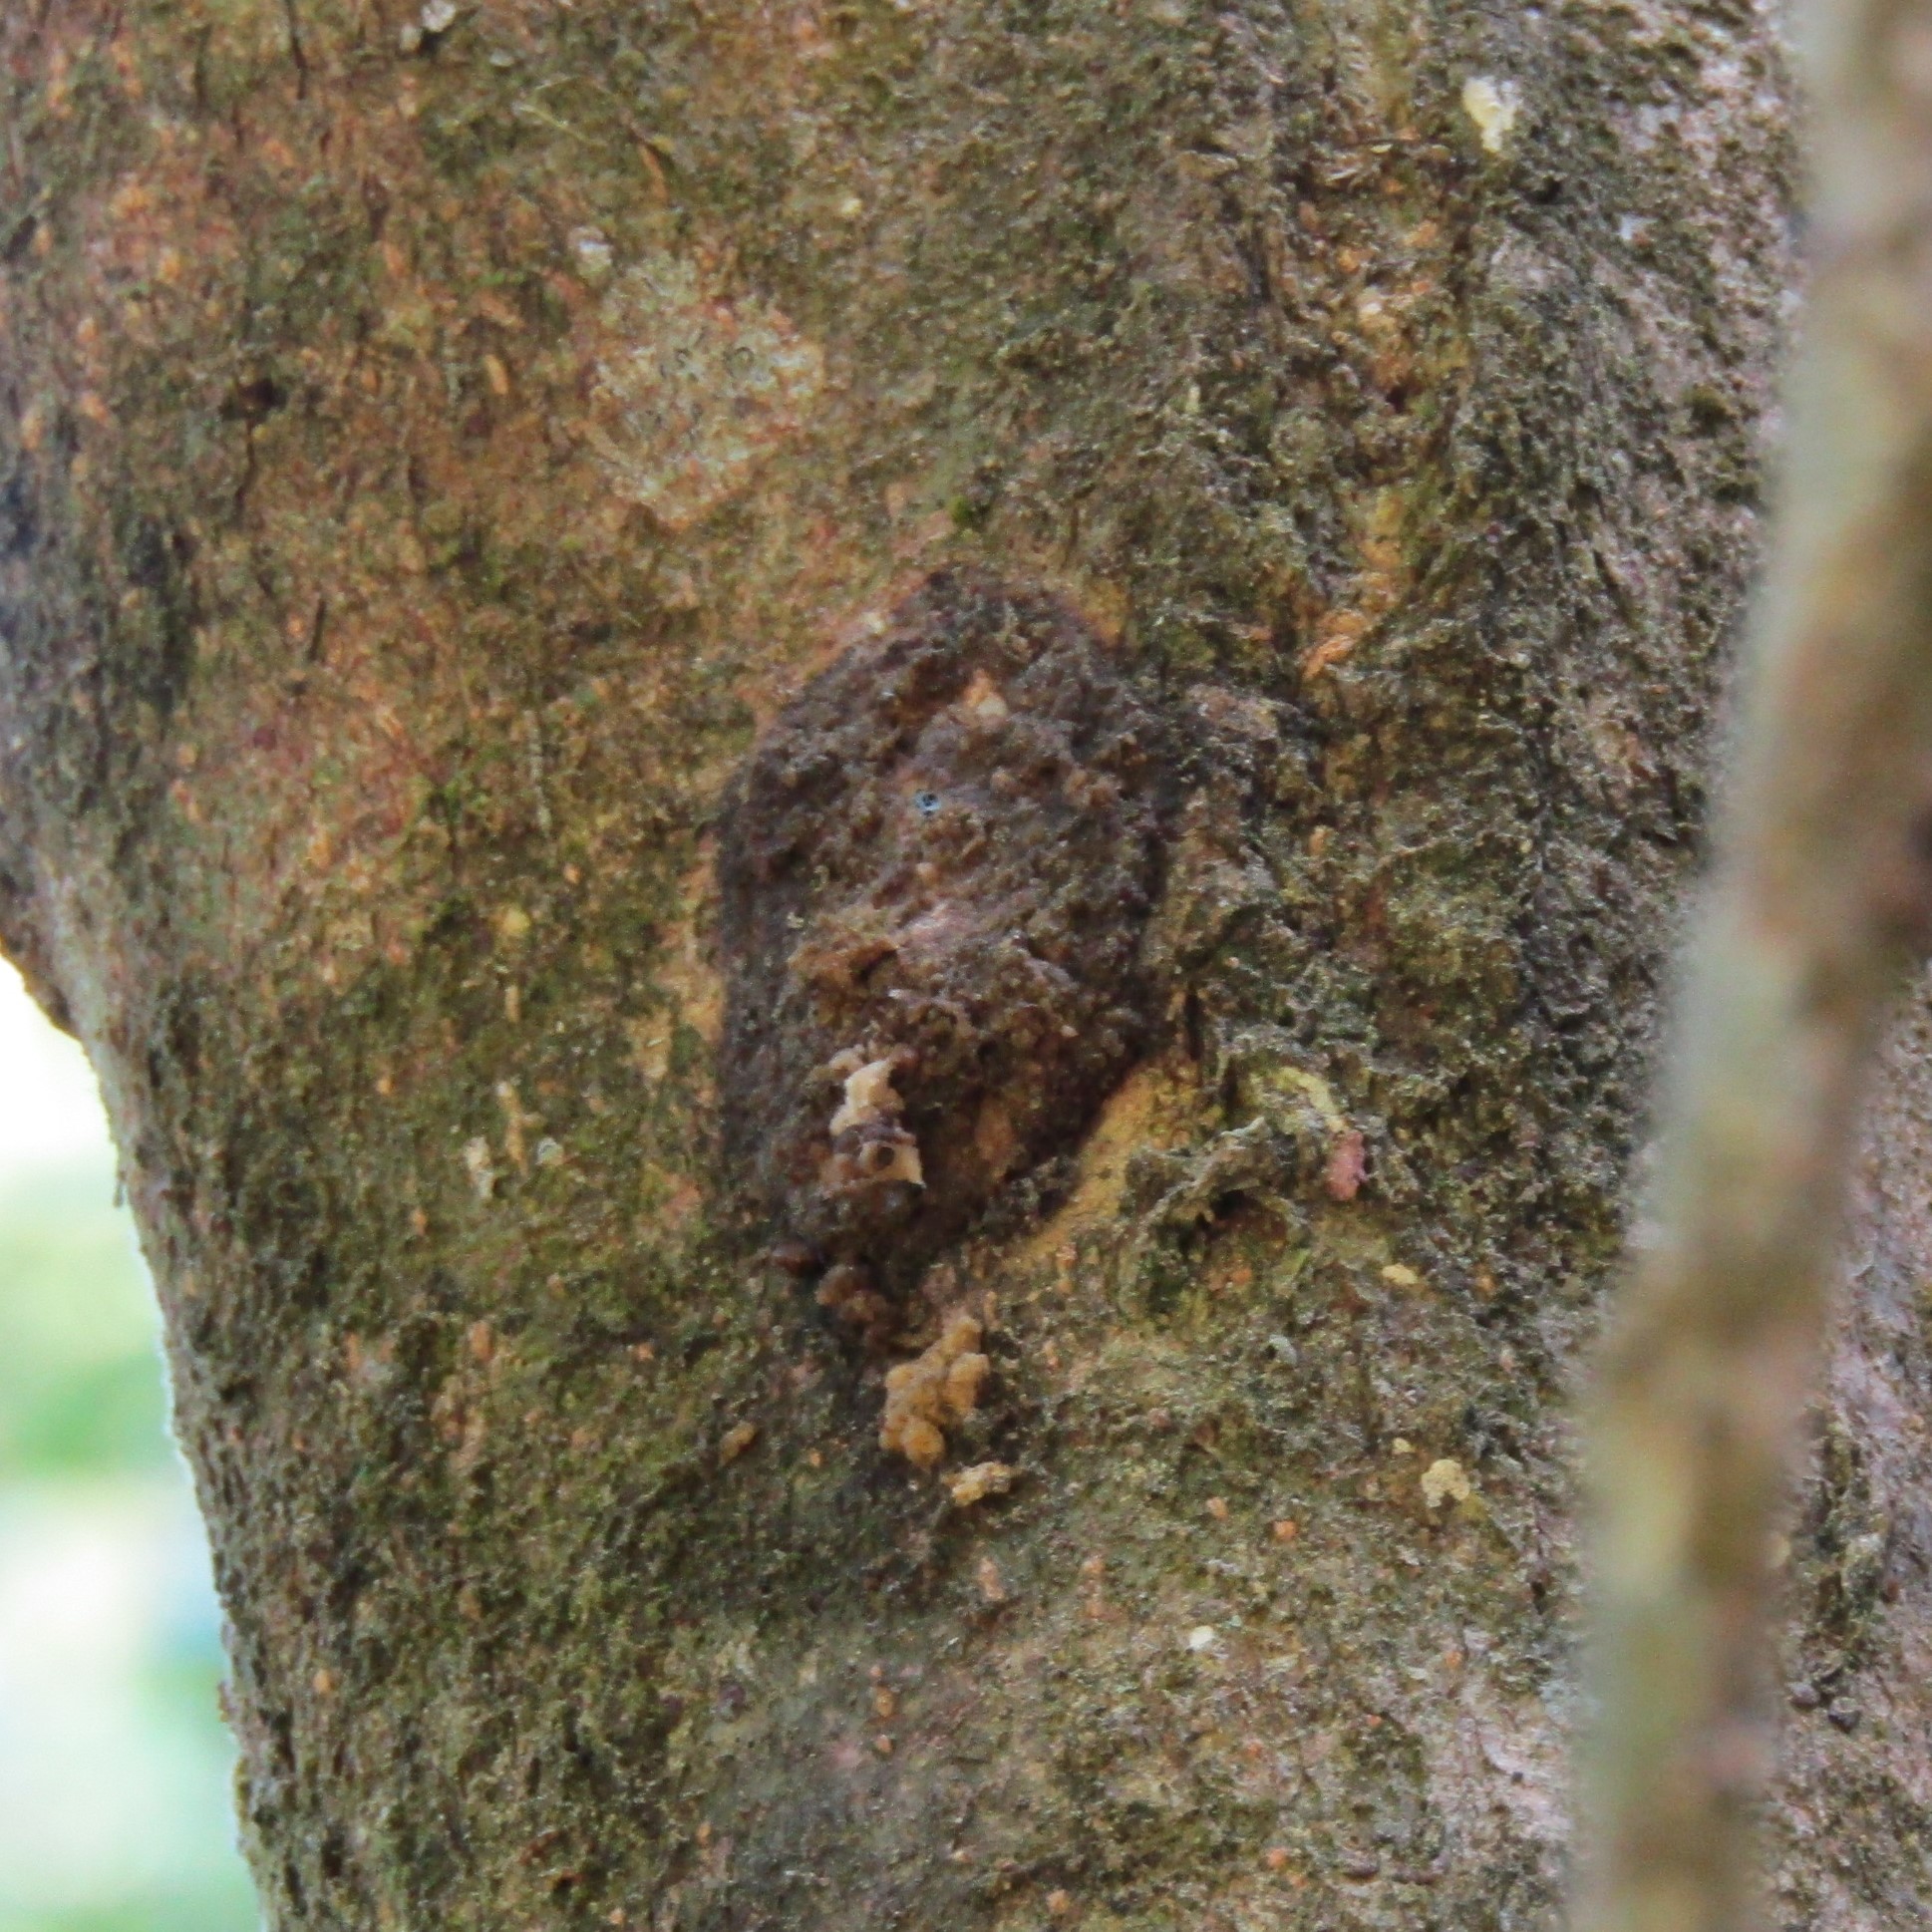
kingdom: Animalia
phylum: Arthropoda
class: Insecta
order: Lepidoptera
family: Hepialidae
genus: Aenetus
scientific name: Aenetus virescens
